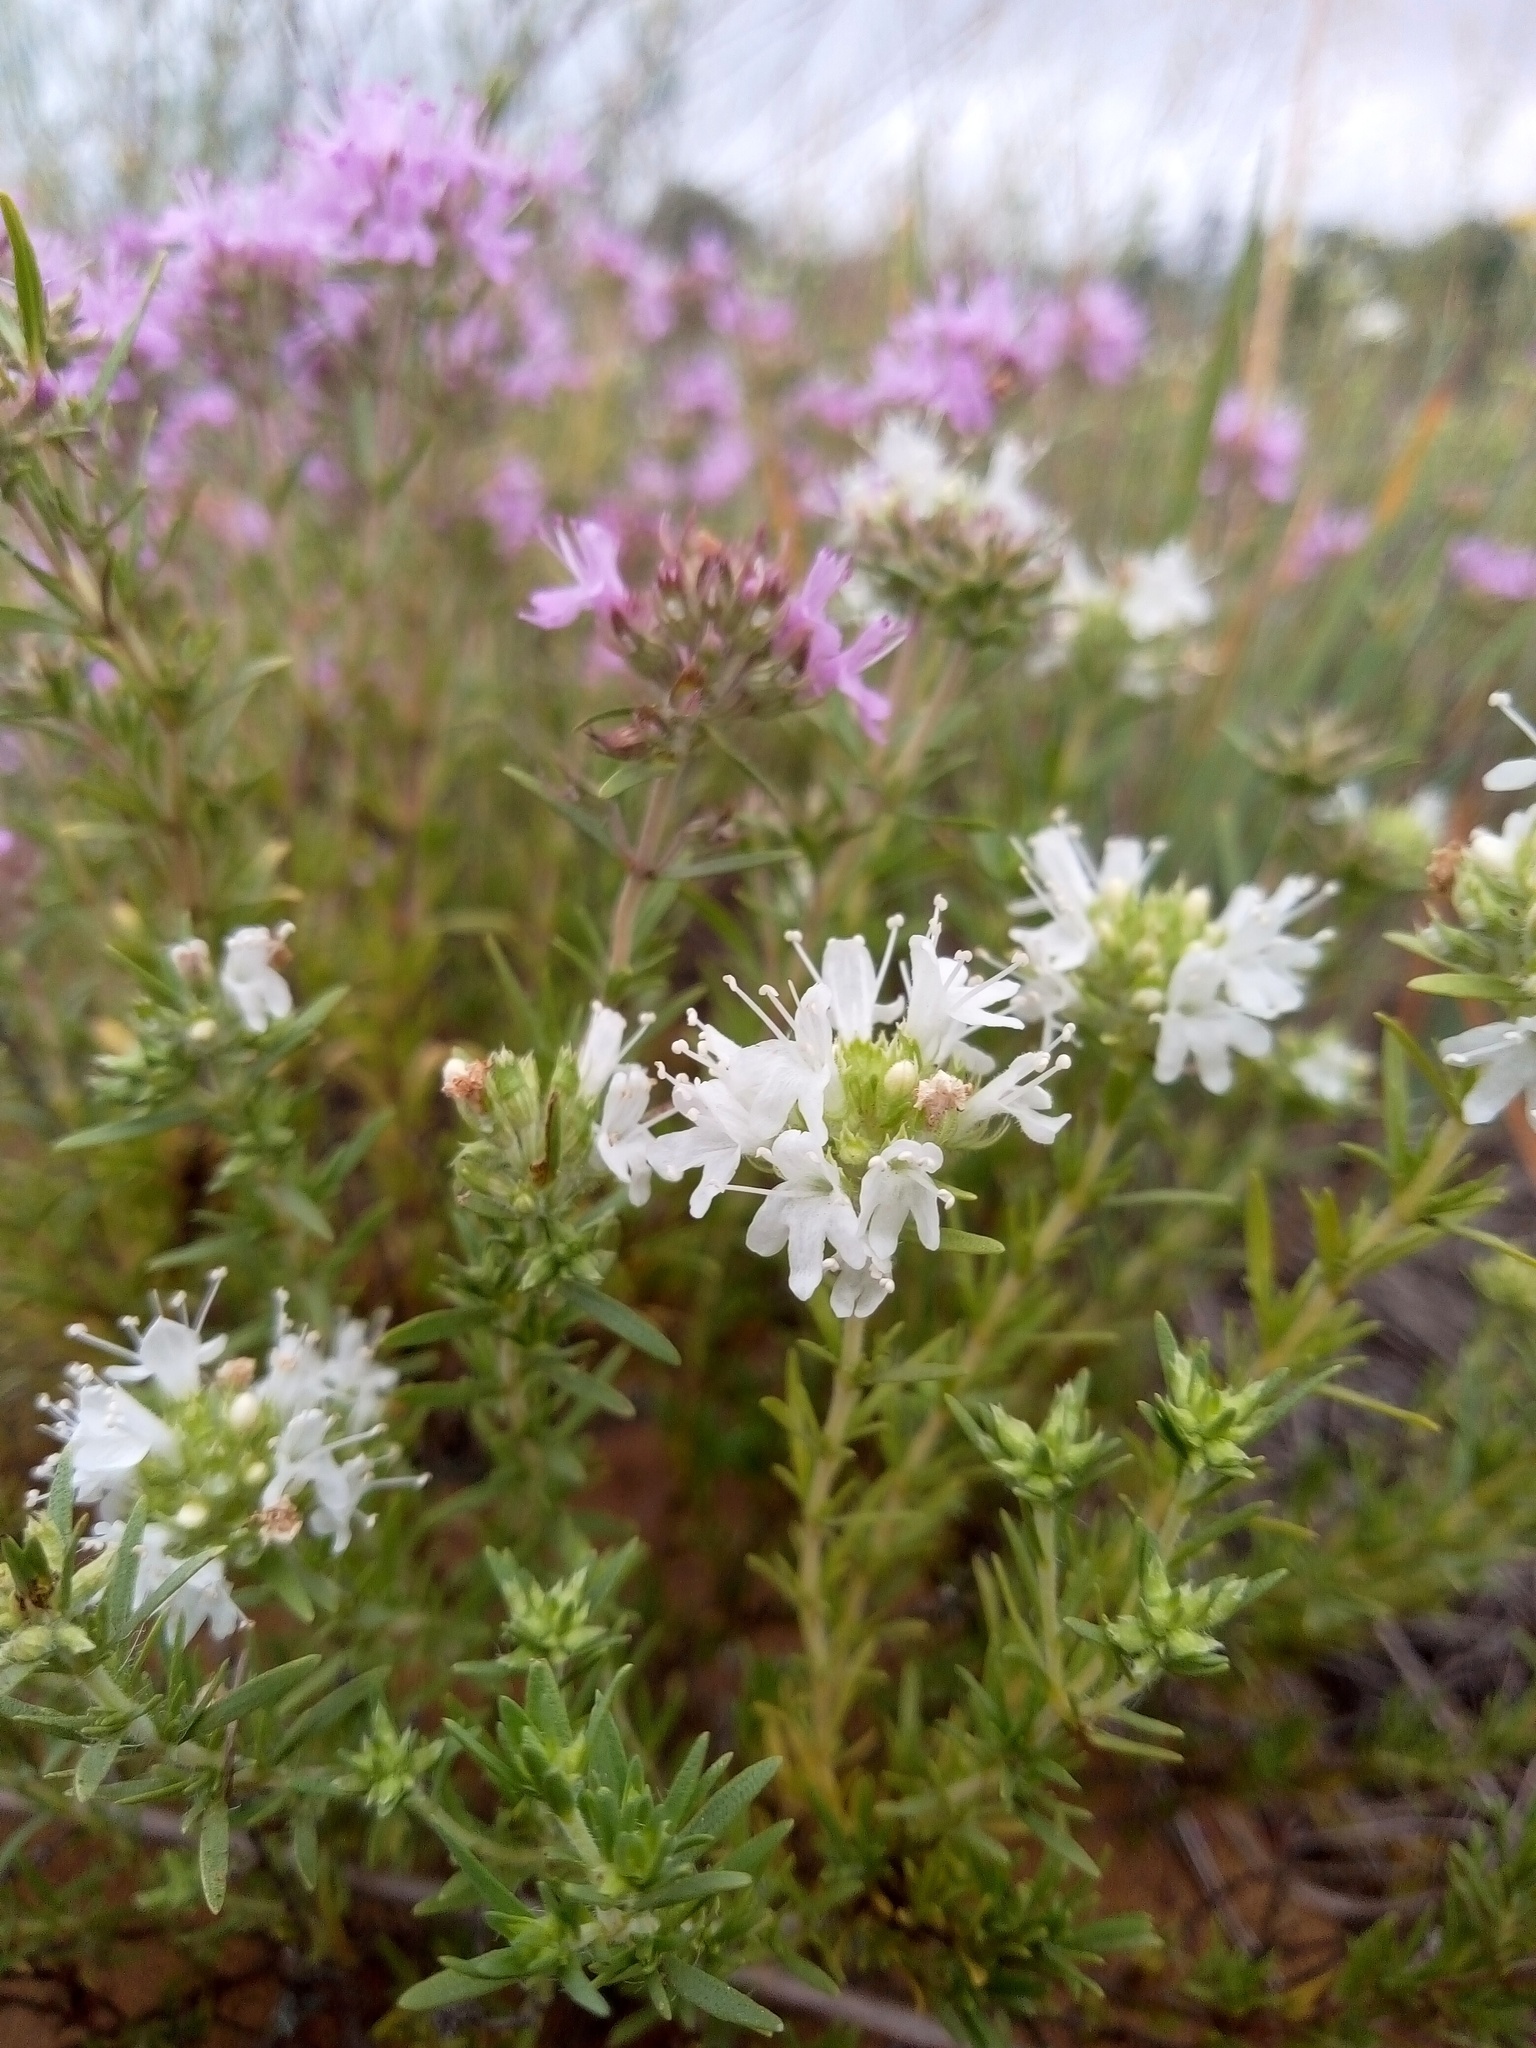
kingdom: Plantae
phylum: Tracheophyta
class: Magnoliopsida
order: Lamiales
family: Lamiaceae
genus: Thymus
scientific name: Thymus pallasianus
